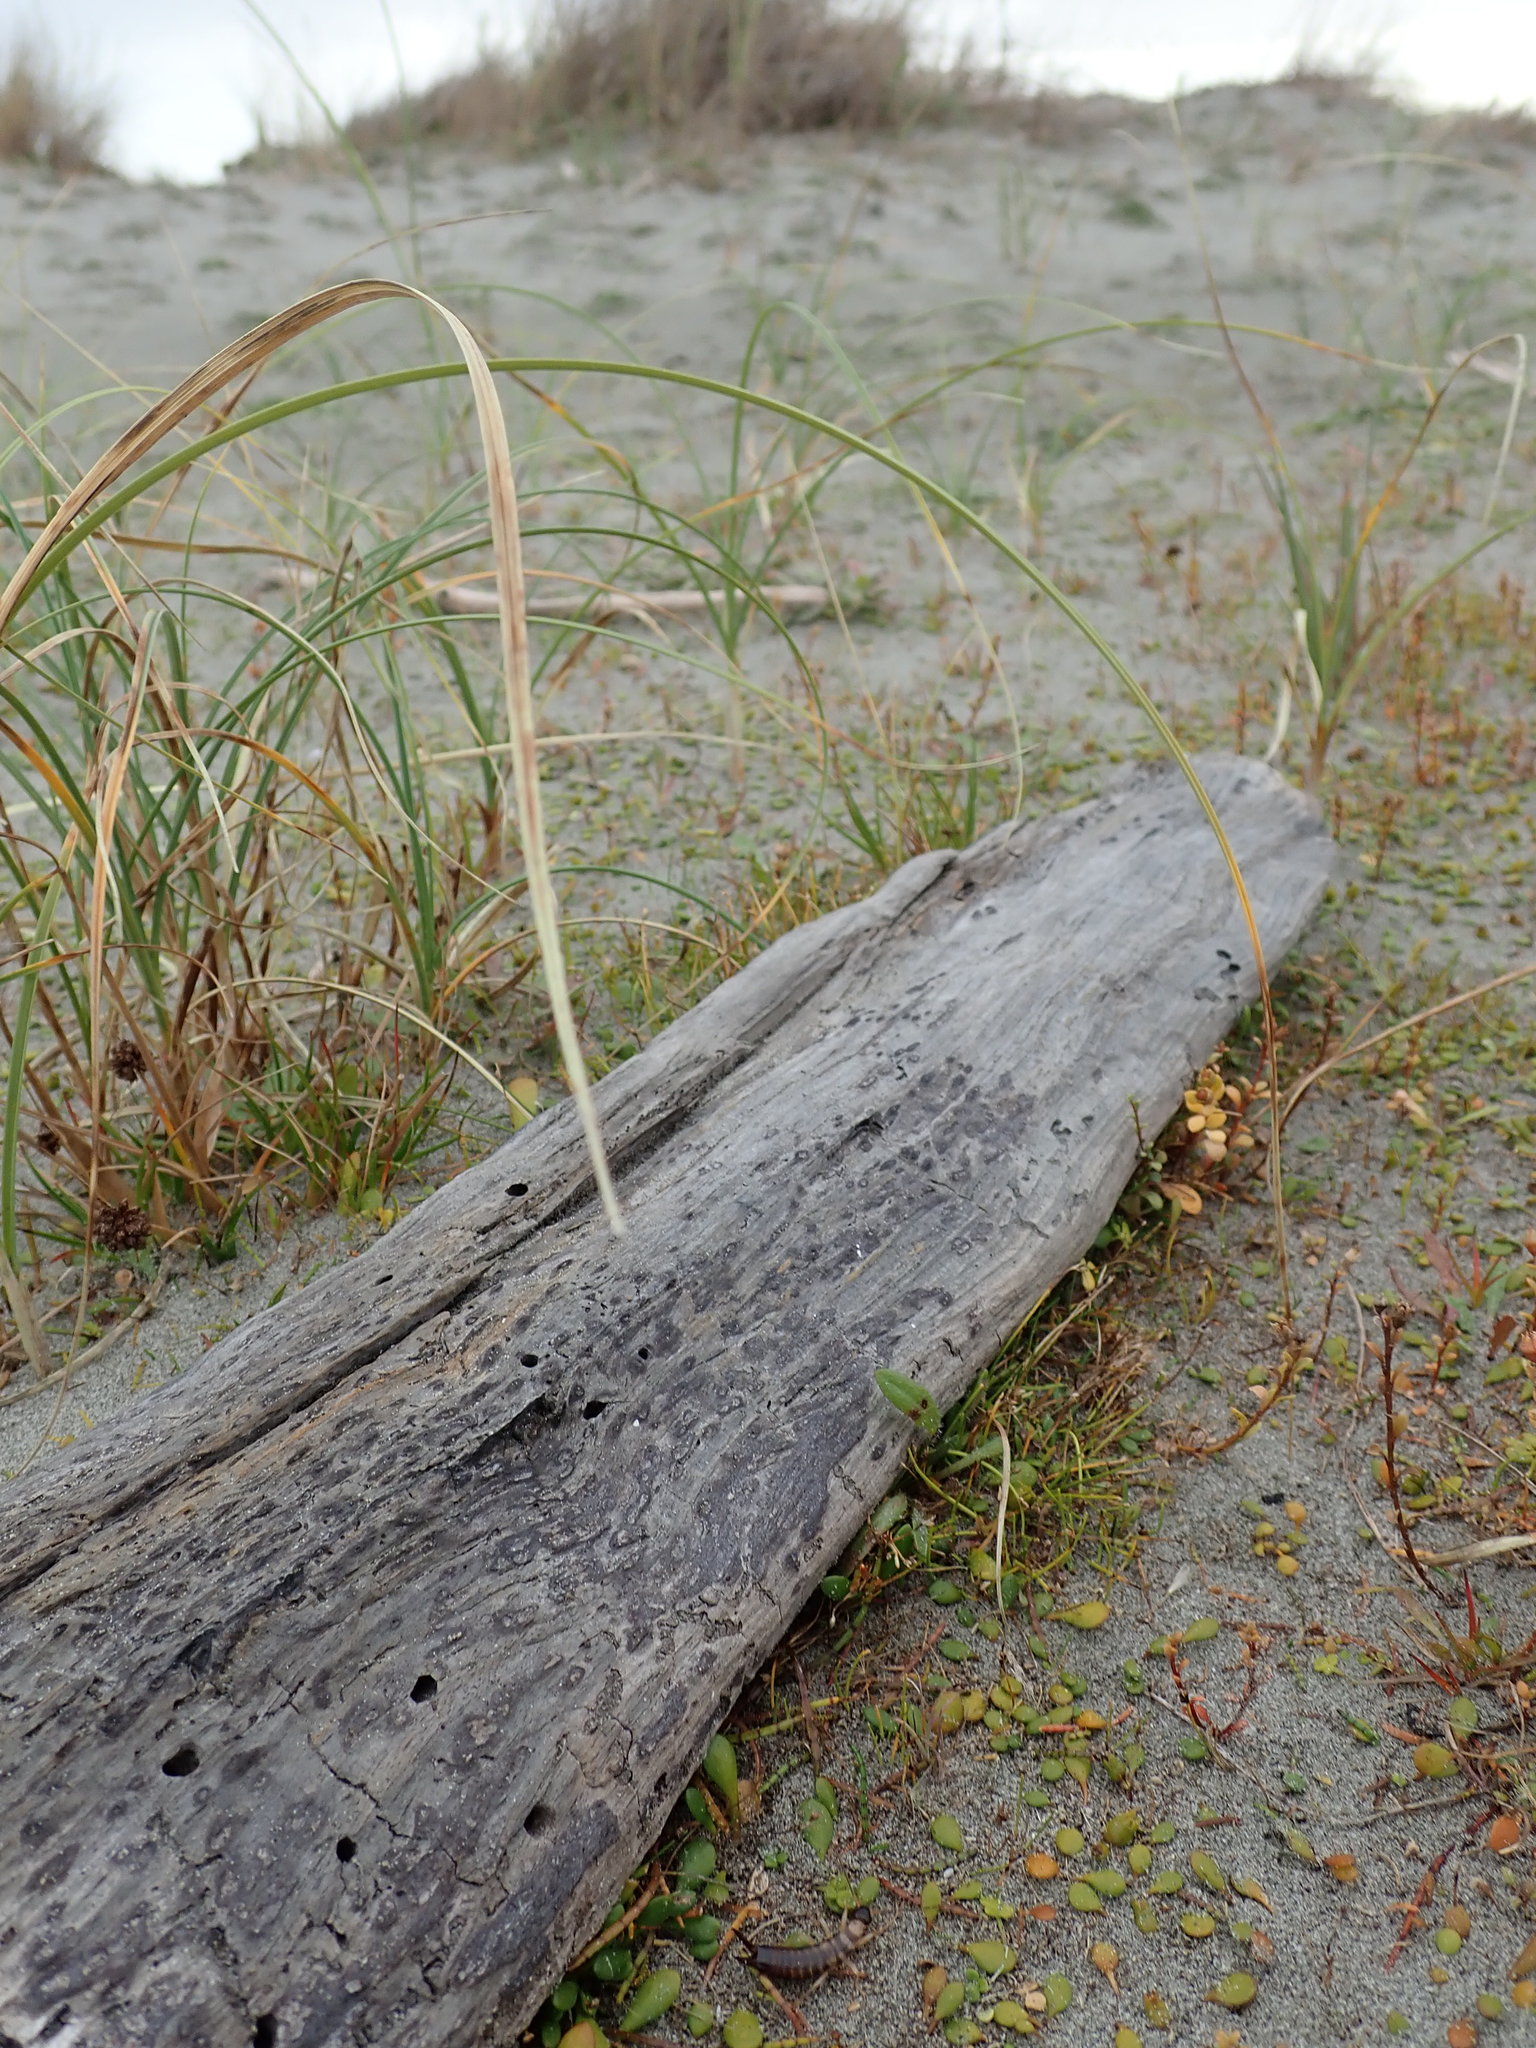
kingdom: Animalia
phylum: Arthropoda
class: Insecta
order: Dermaptera
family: Anisolabididae
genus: Anisolabis
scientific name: Anisolabis littorea
